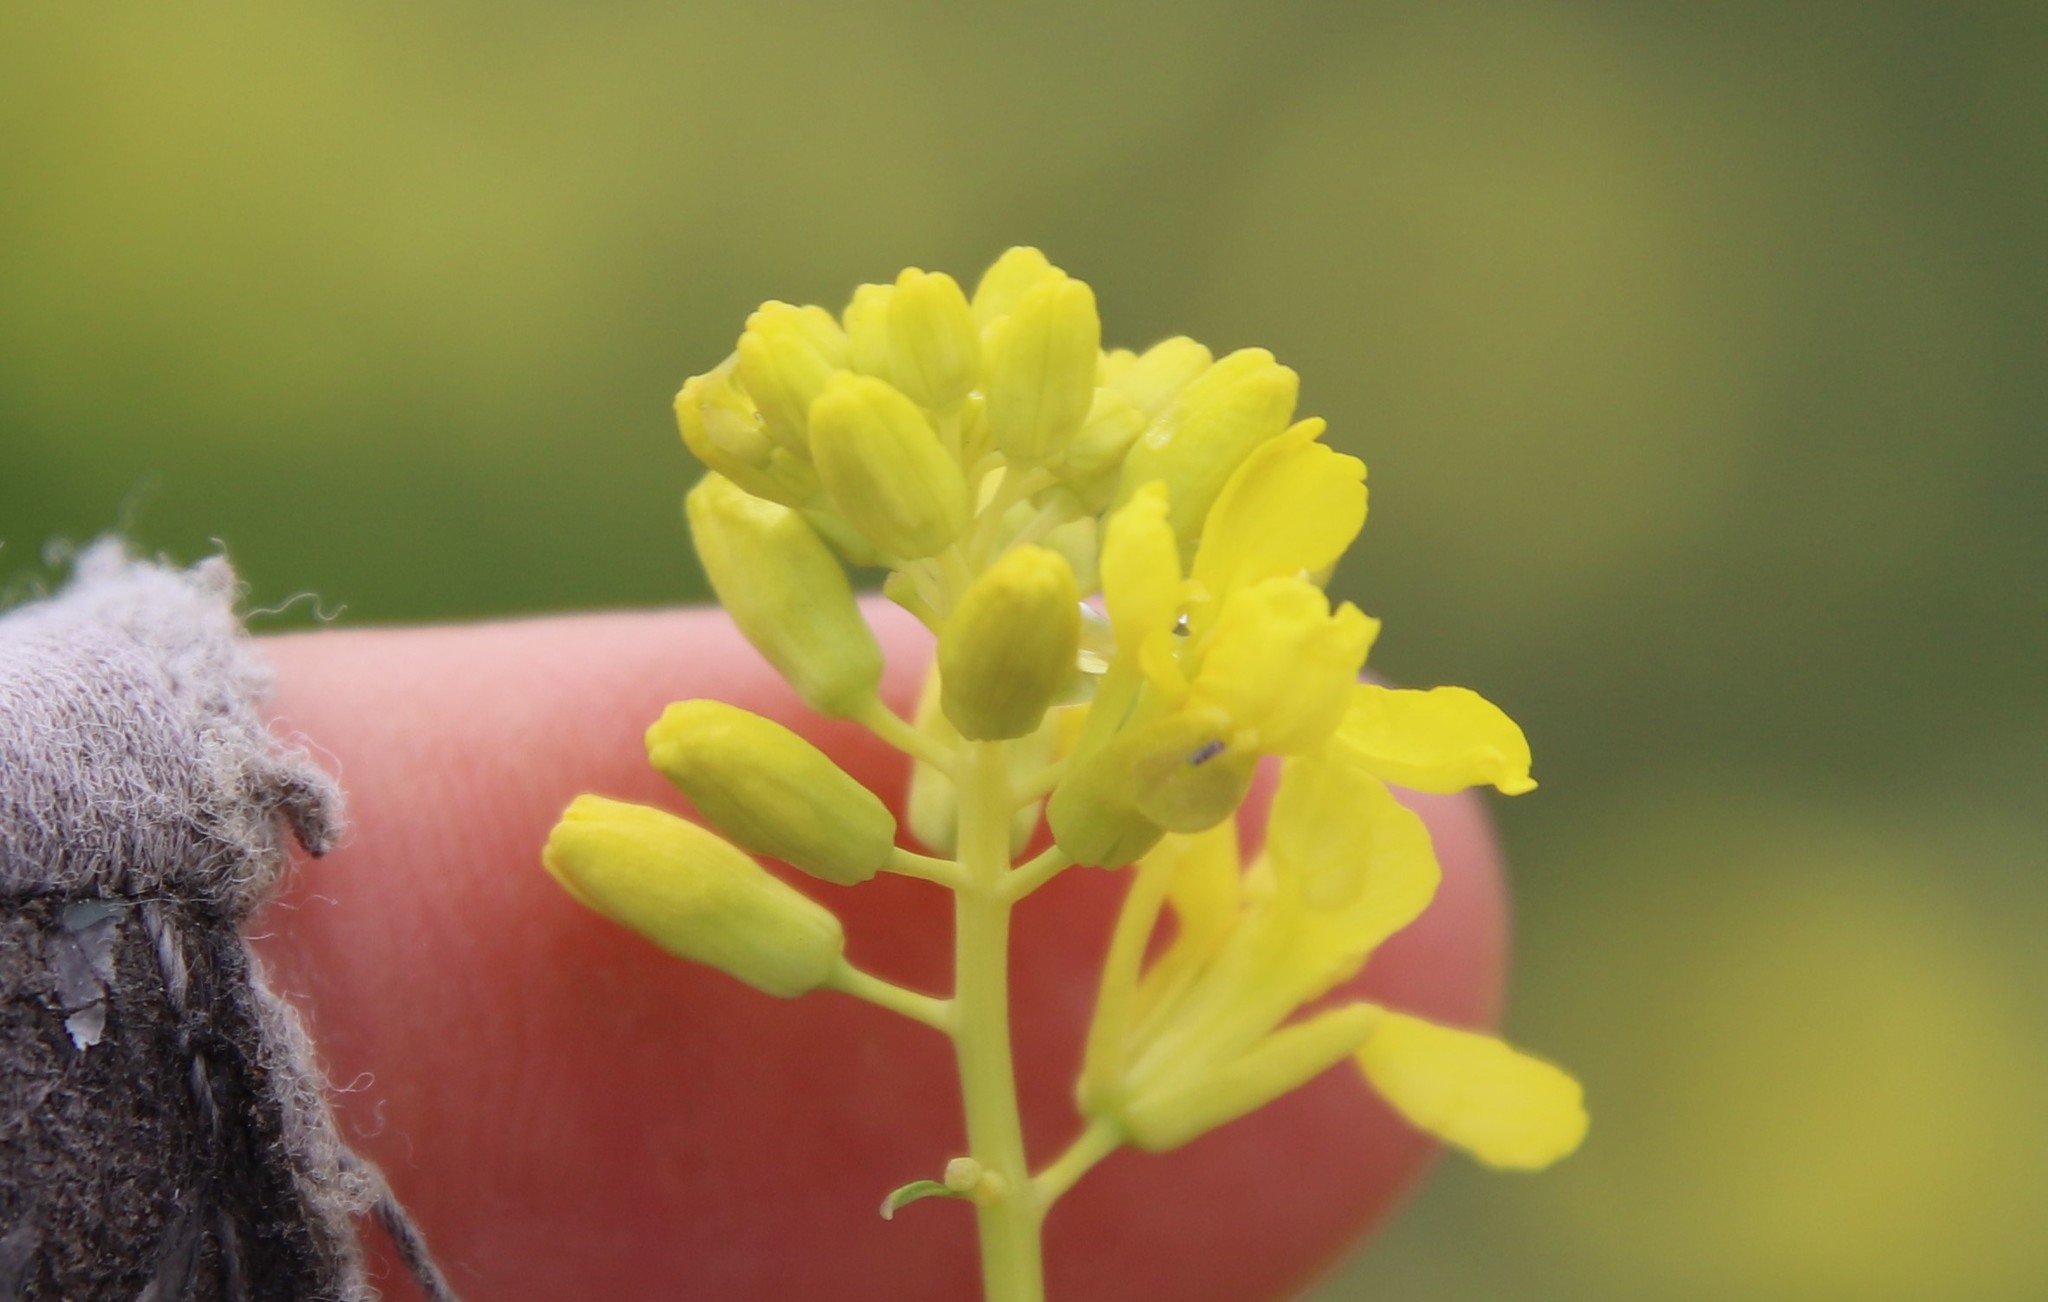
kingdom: Plantae
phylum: Tracheophyta
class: Magnoliopsida
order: Brassicales
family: Brassicaceae
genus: Brassica
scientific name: Brassica nigra
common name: Black mustard
